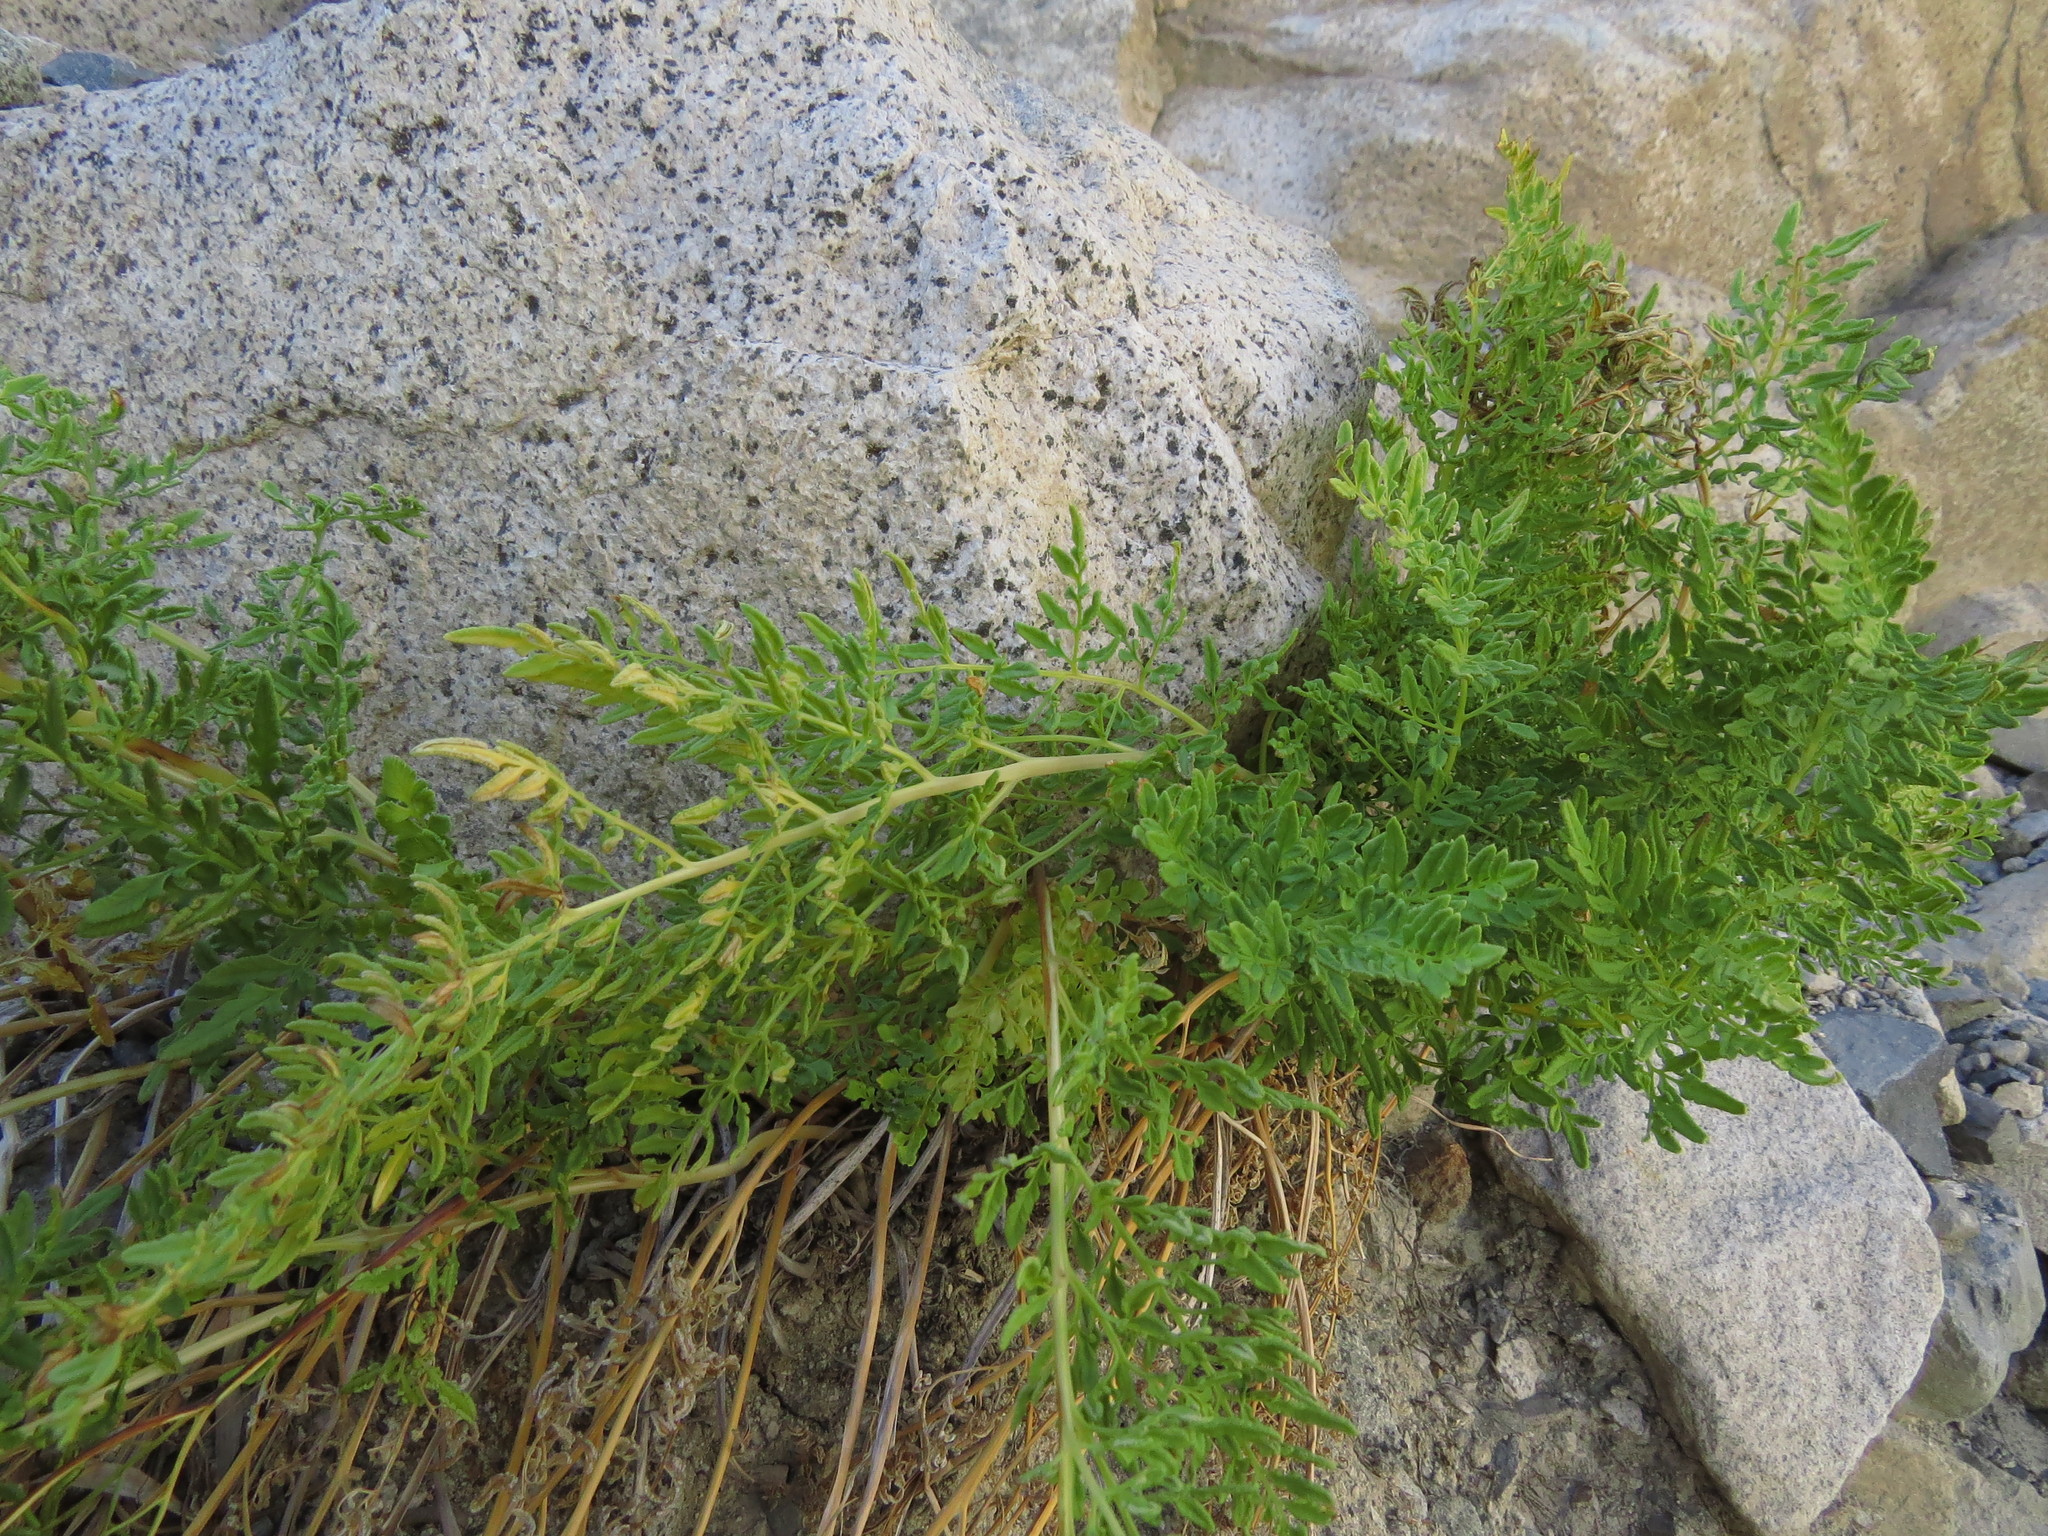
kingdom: Plantae
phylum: Tracheophyta
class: Polypodiopsida
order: Polypodiales
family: Pteridaceae
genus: Cryptogramma
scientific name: Cryptogramma fumariifolia
